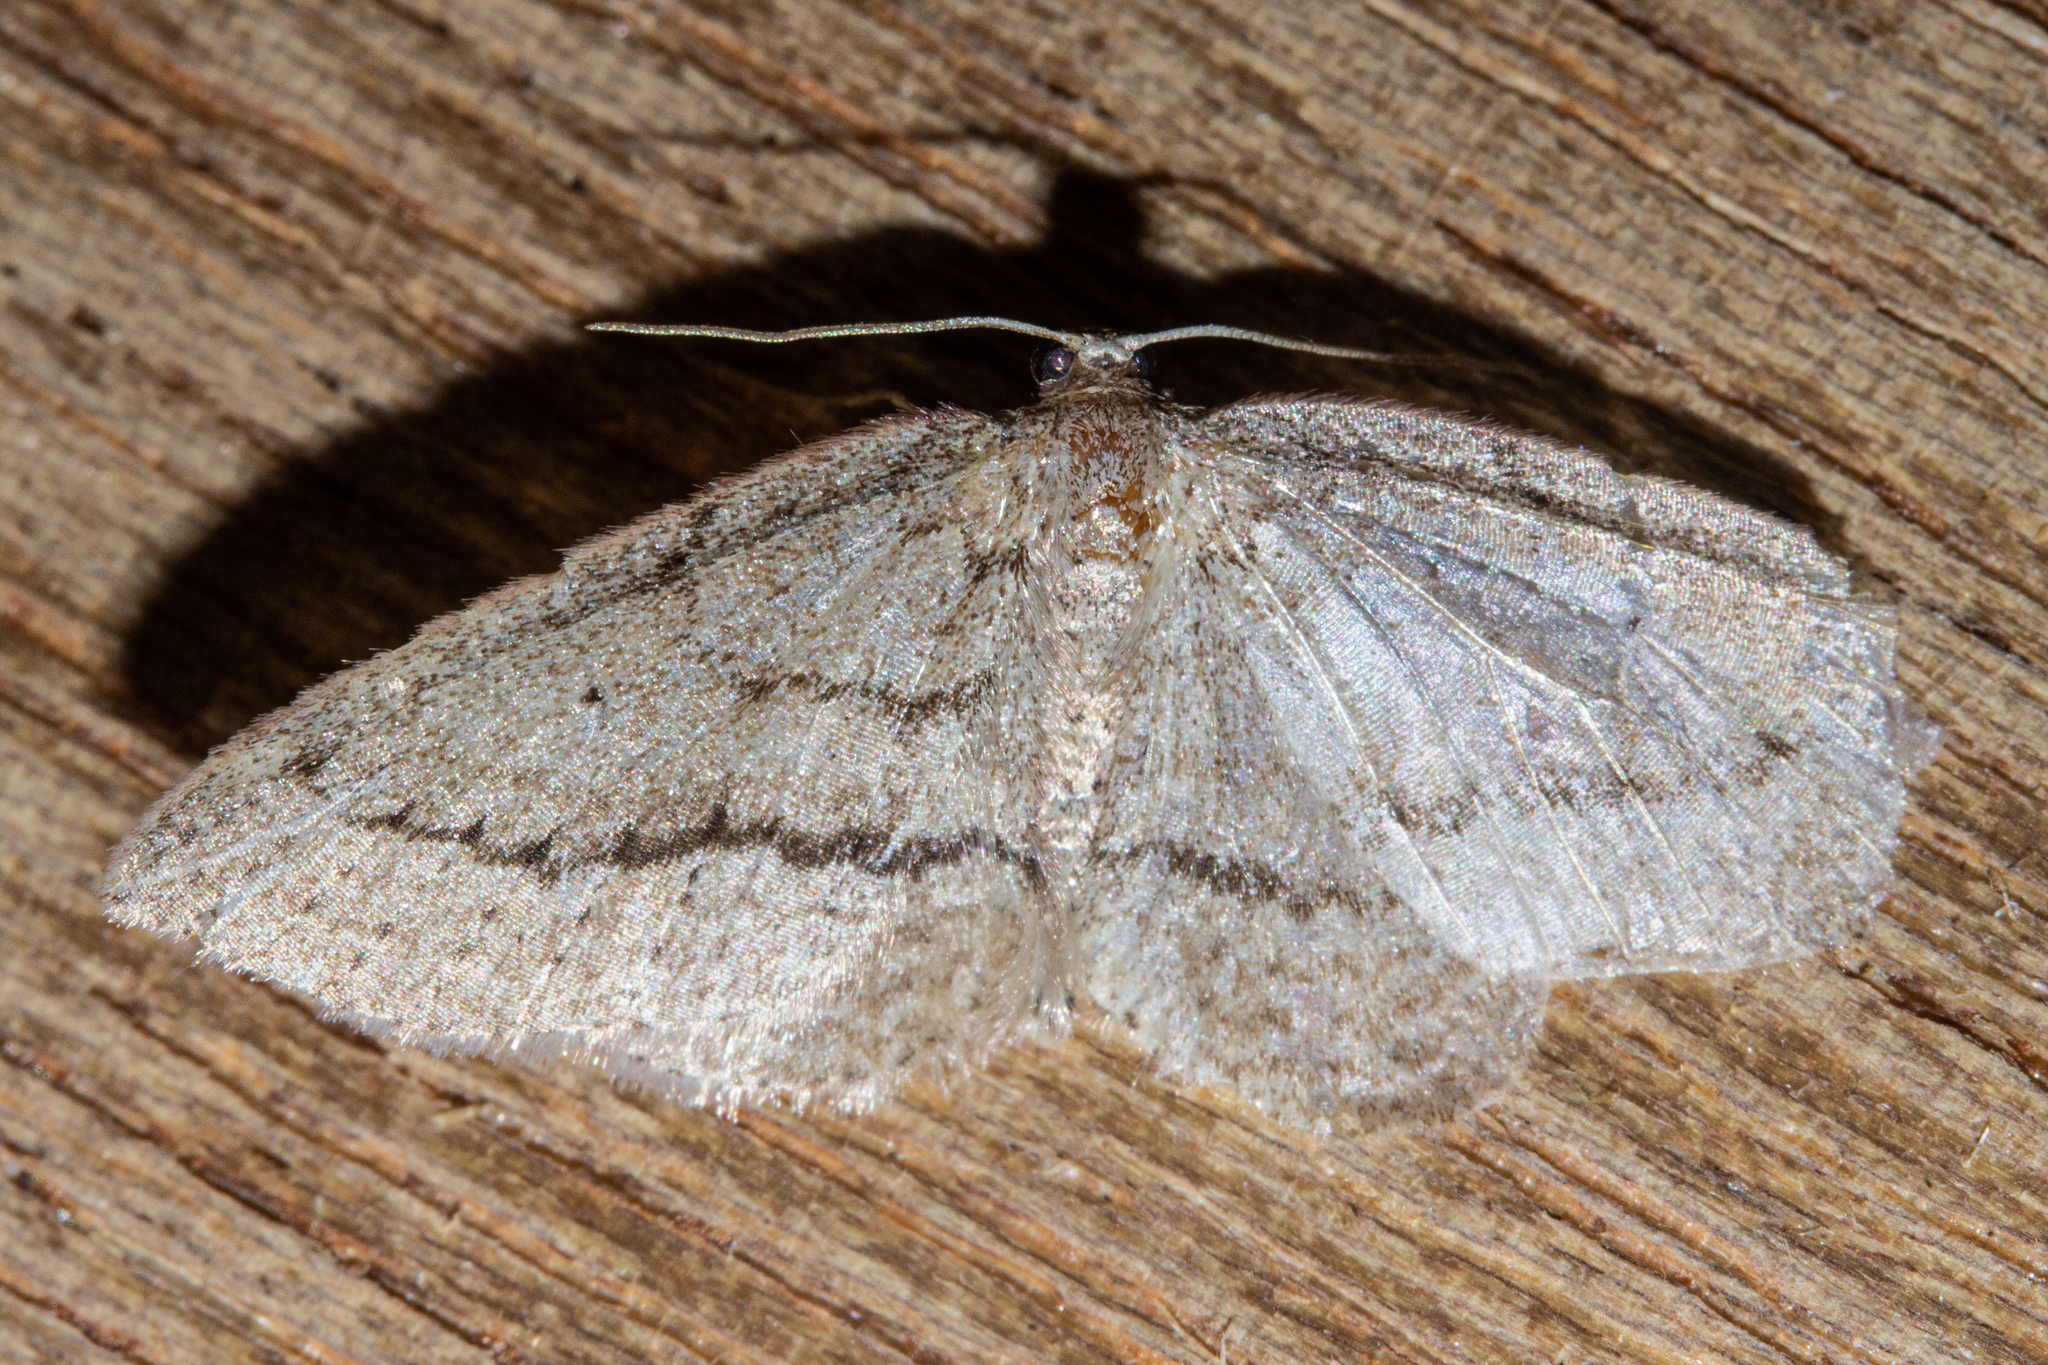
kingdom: Animalia
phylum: Arthropoda
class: Insecta
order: Lepidoptera
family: Geometridae
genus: Poecilasthena
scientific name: Poecilasthena schistaria
